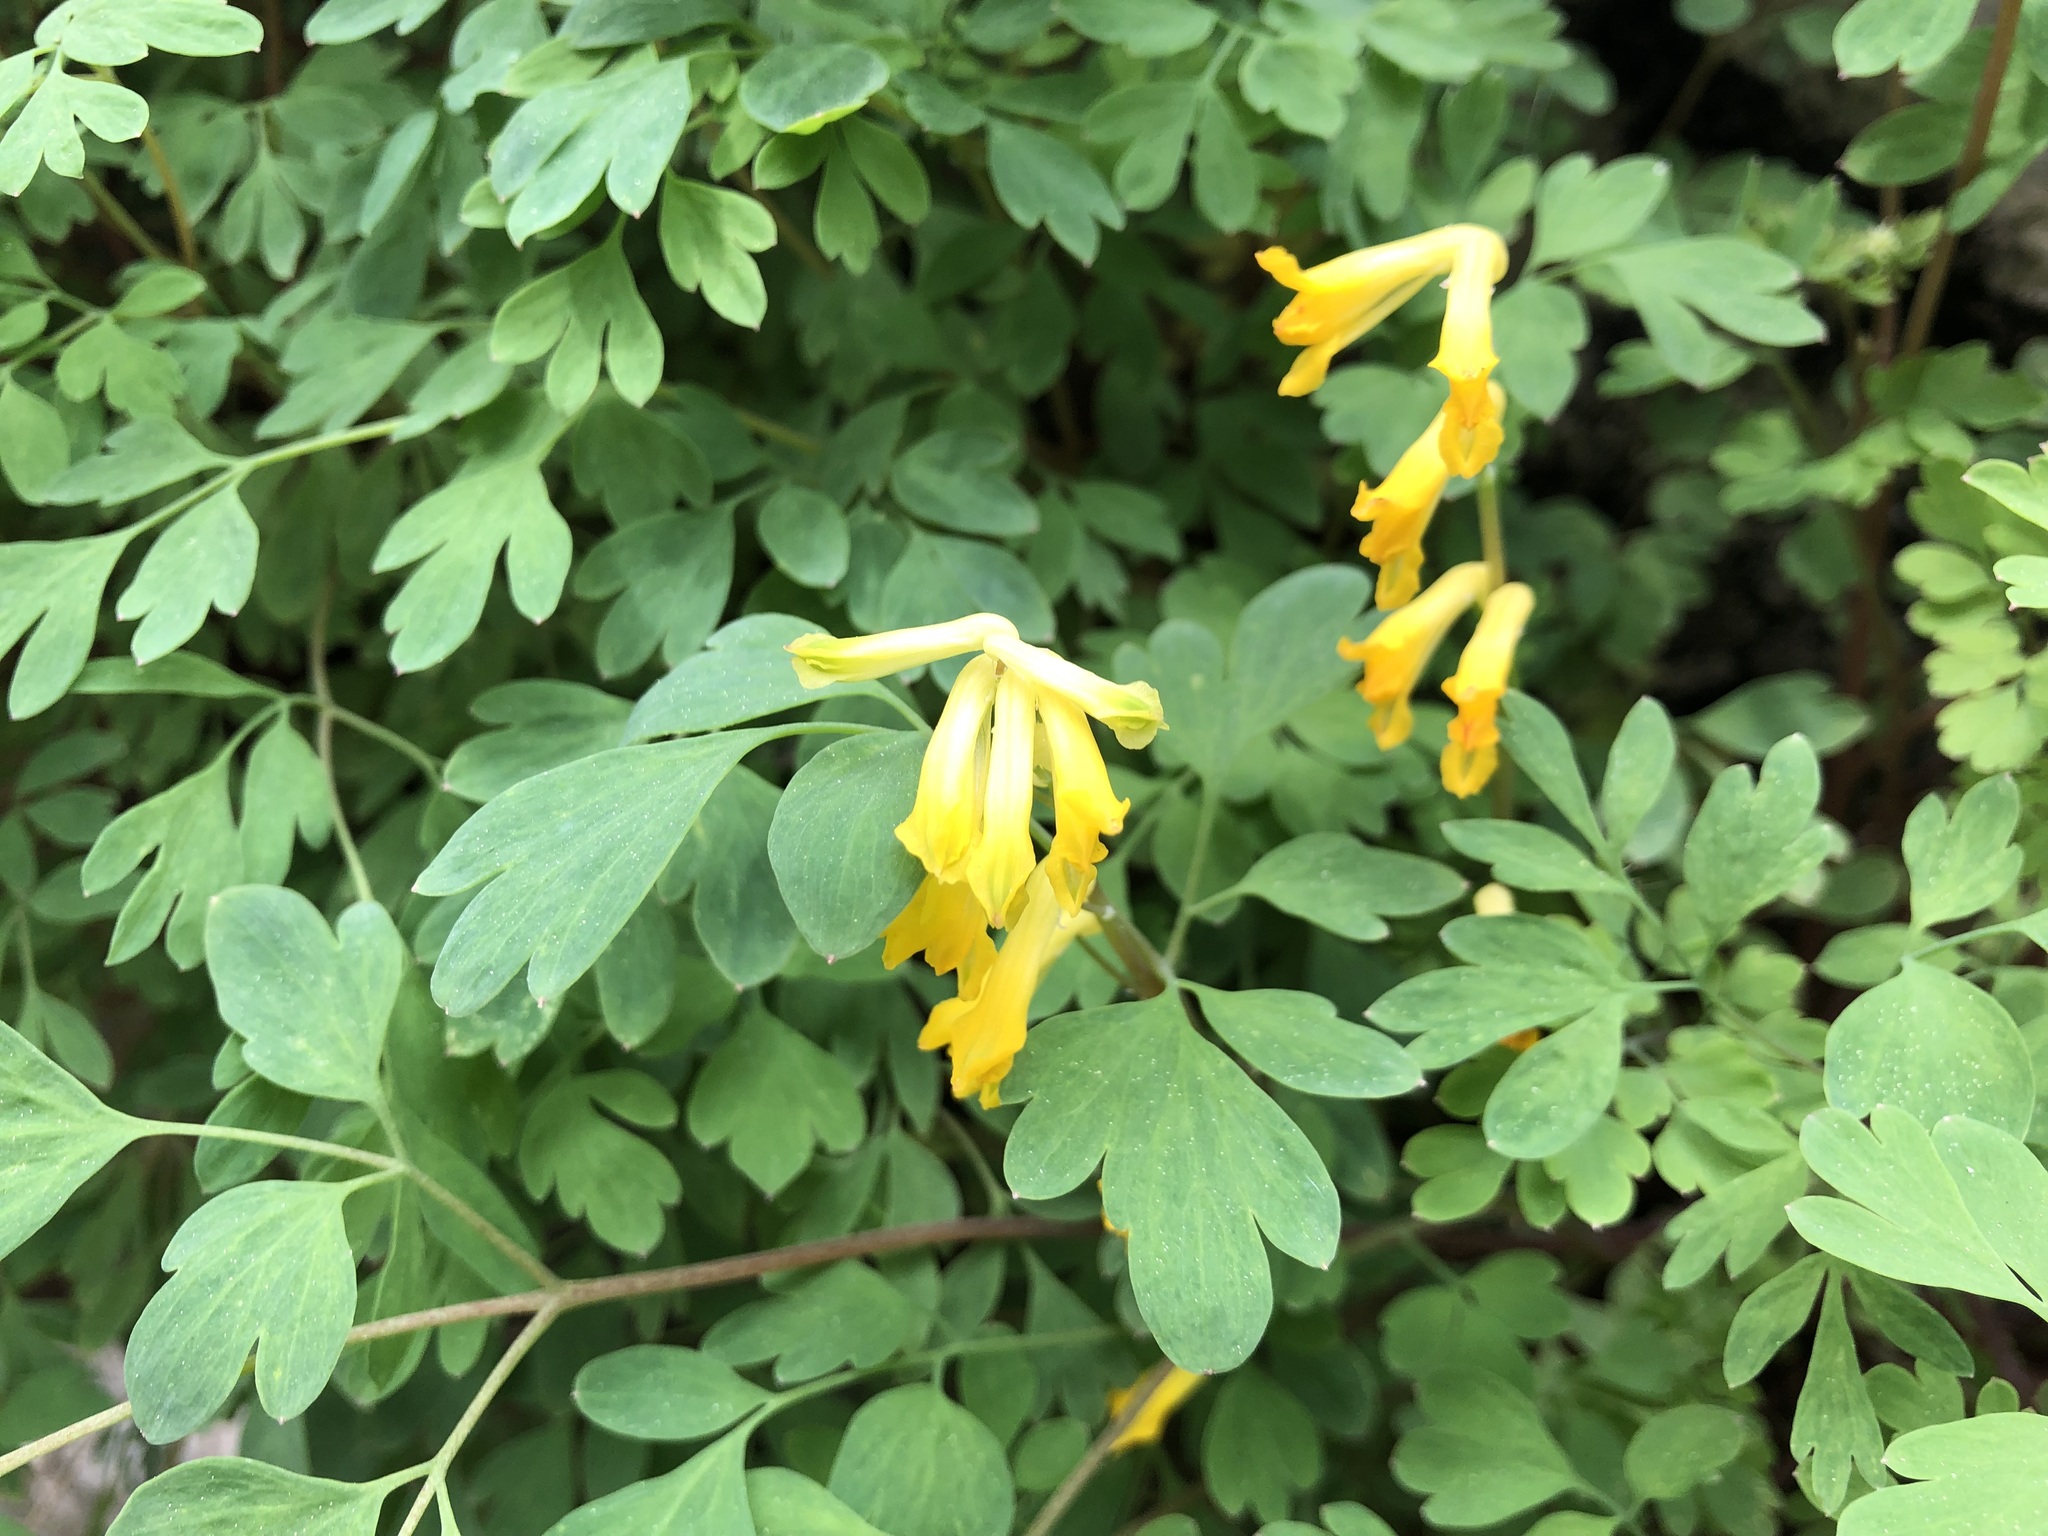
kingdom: Plantae
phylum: Tracheophyta
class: Magnoliopsida
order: Ranunculales
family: Papaveraceae
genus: Pseudofumaria
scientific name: Pseudofumaria lutea
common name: Yellow corydalis
